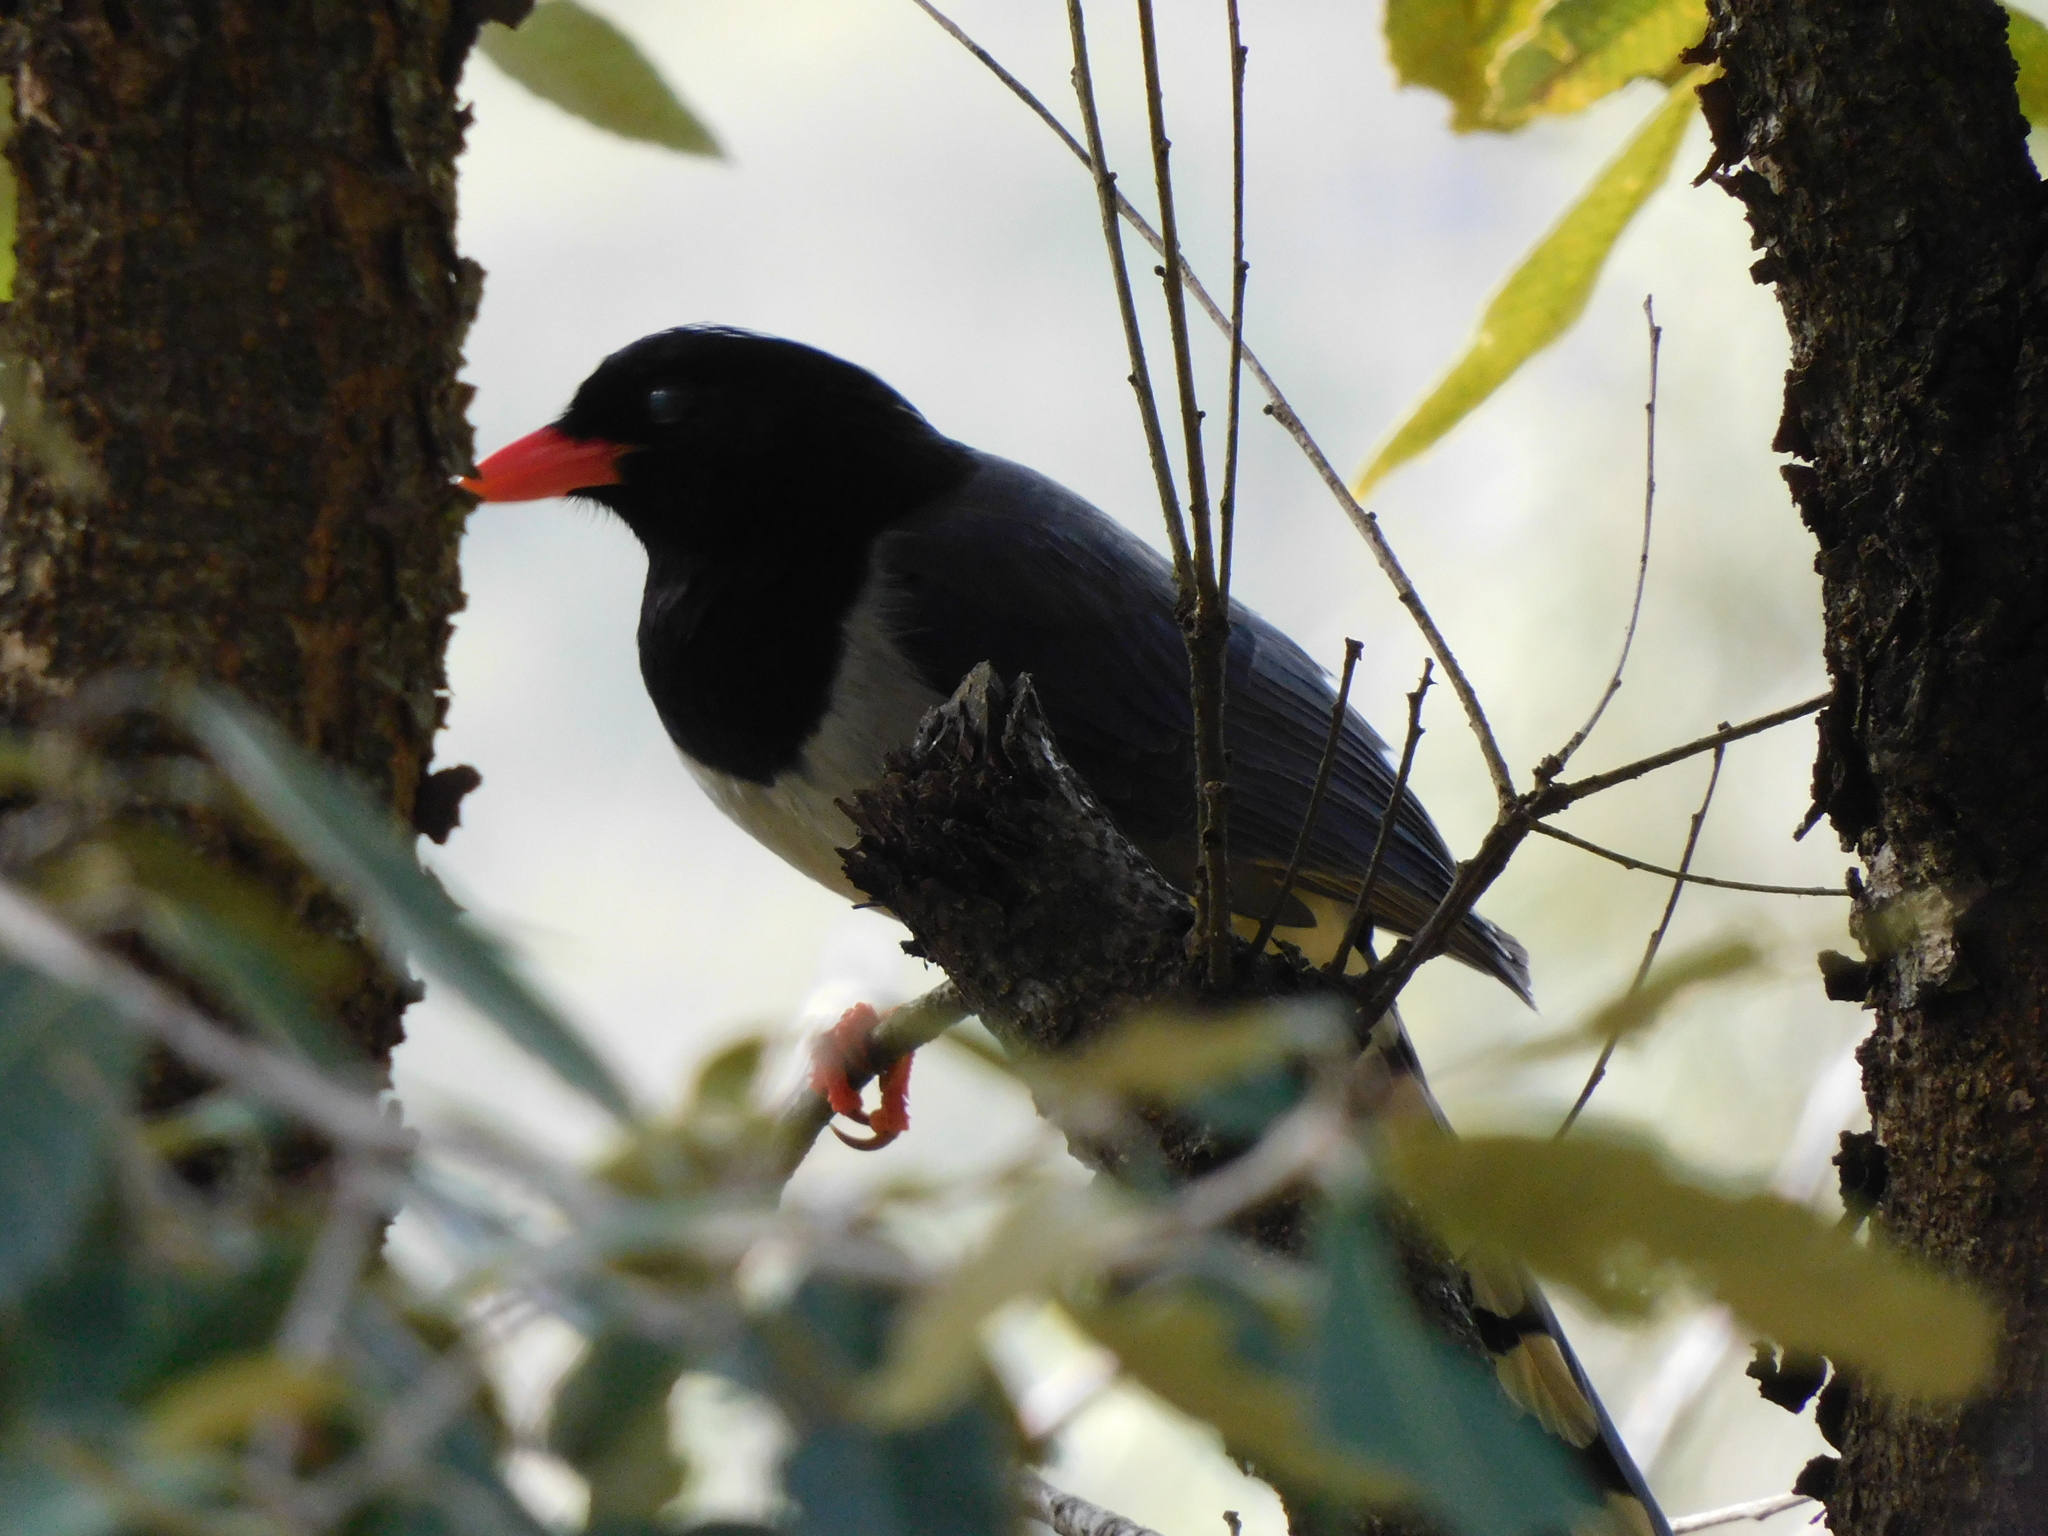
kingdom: Animalia
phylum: Chordata
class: Aves
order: Passeriformes
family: Corvidae
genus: Urocissa
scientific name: Urocissa erythroryncha
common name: Red-billed blue magpie
